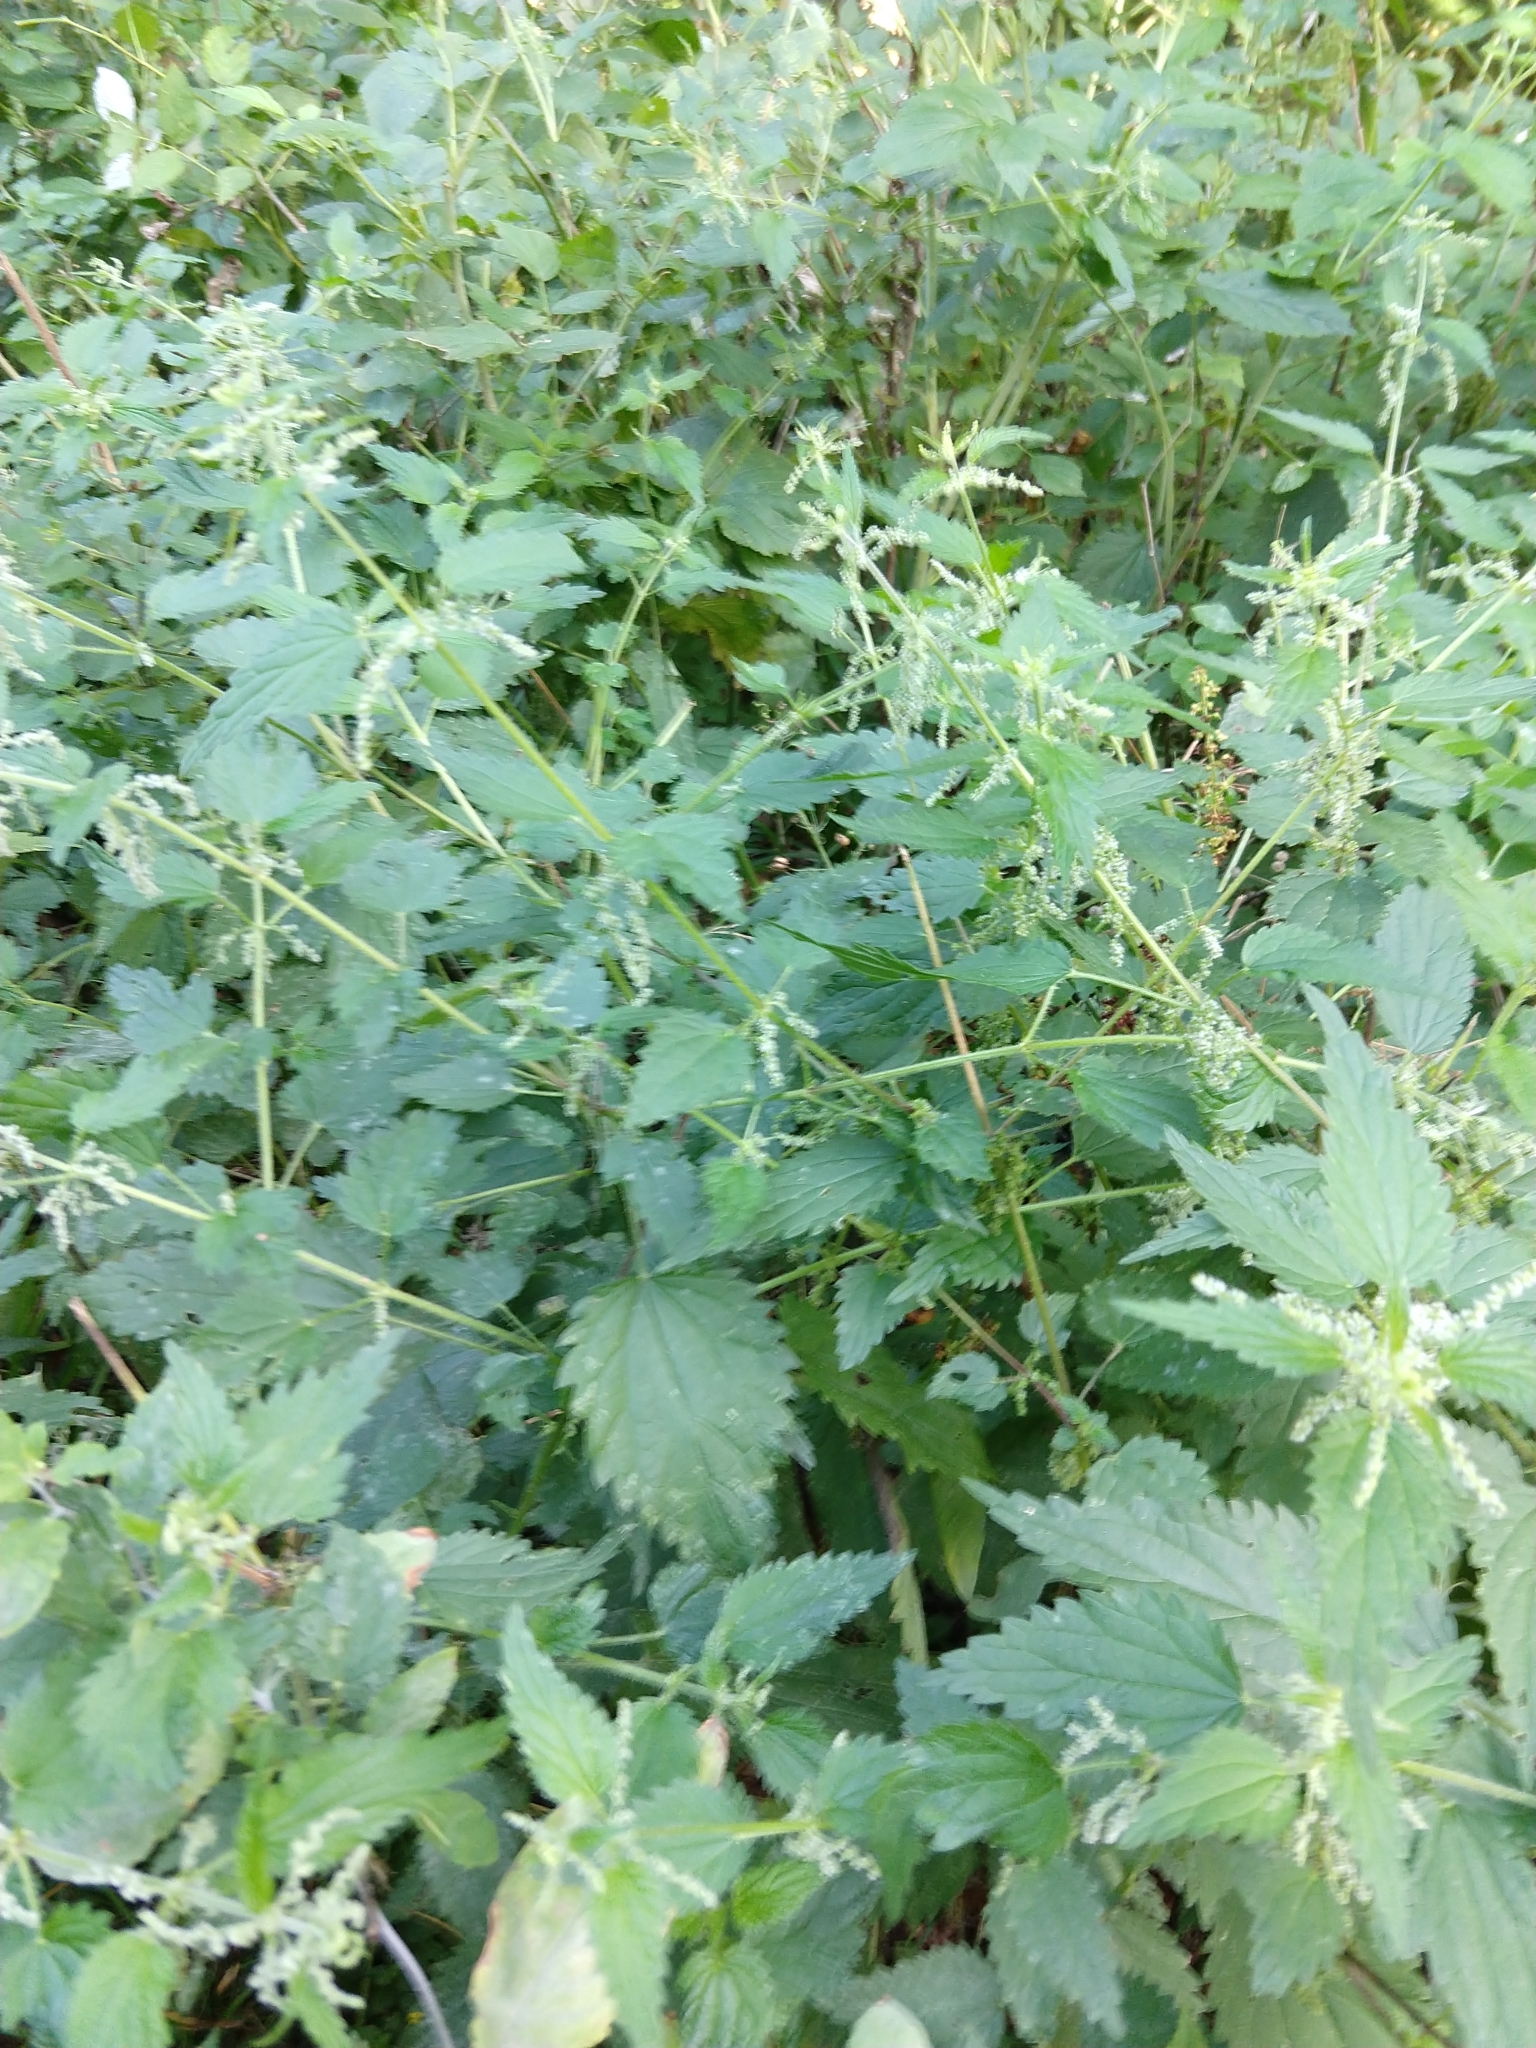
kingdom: Plantae
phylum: Tracheophyta
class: Magnoliopsida
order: Rosales
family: Urticaceae
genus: Urtica
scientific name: Urtica dioica
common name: Common nettle
